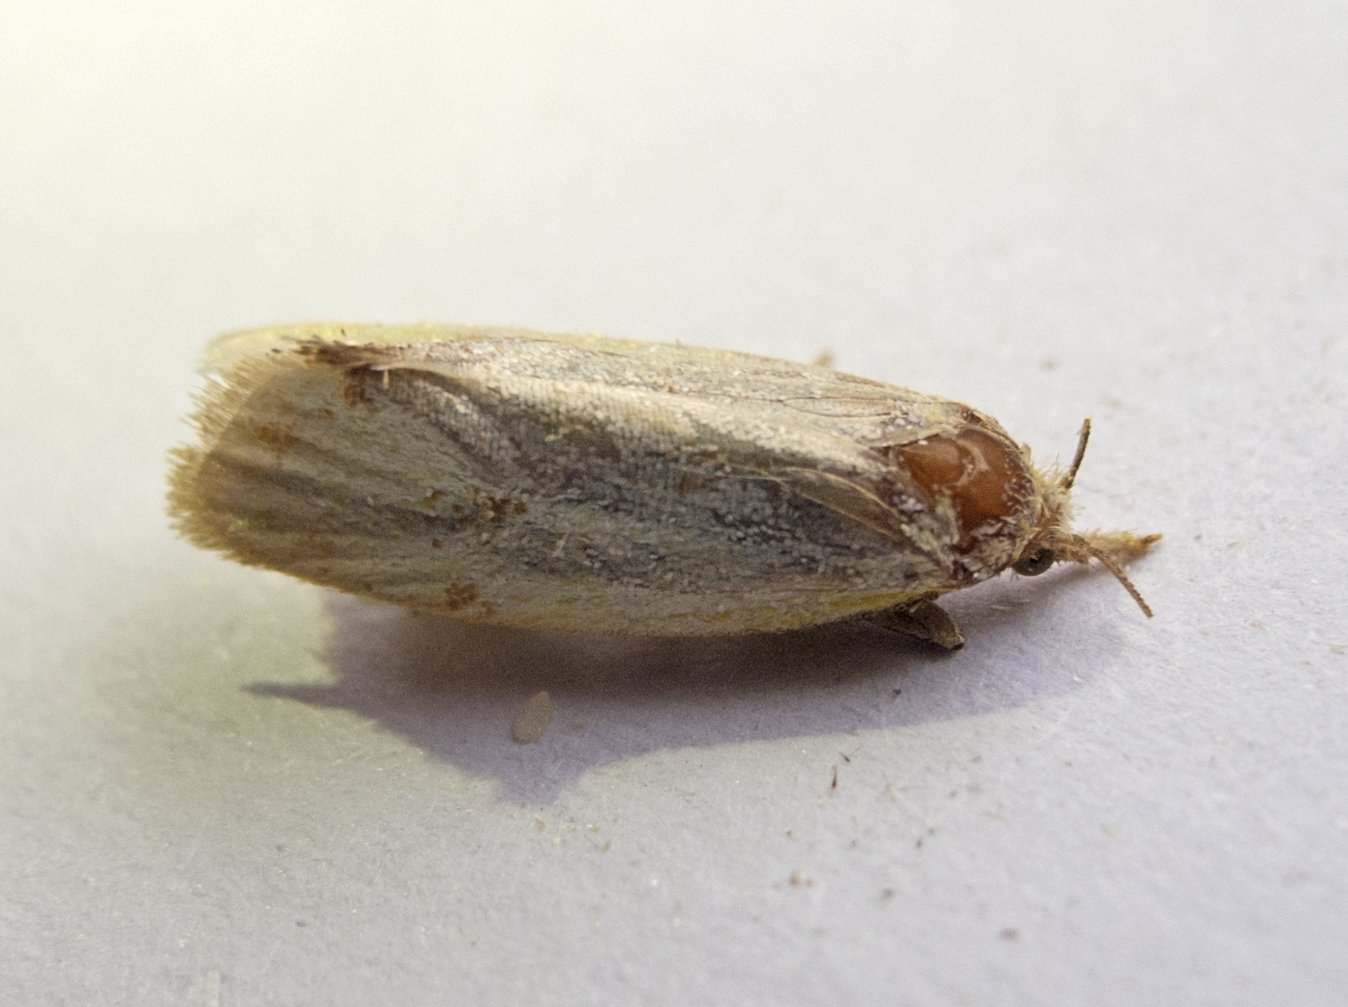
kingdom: Animalia
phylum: Arthropoda
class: Insecta
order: Lepidoptera
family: Tortricidae
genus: Agapeta
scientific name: Agapeta hamana
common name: Common yellow conch
